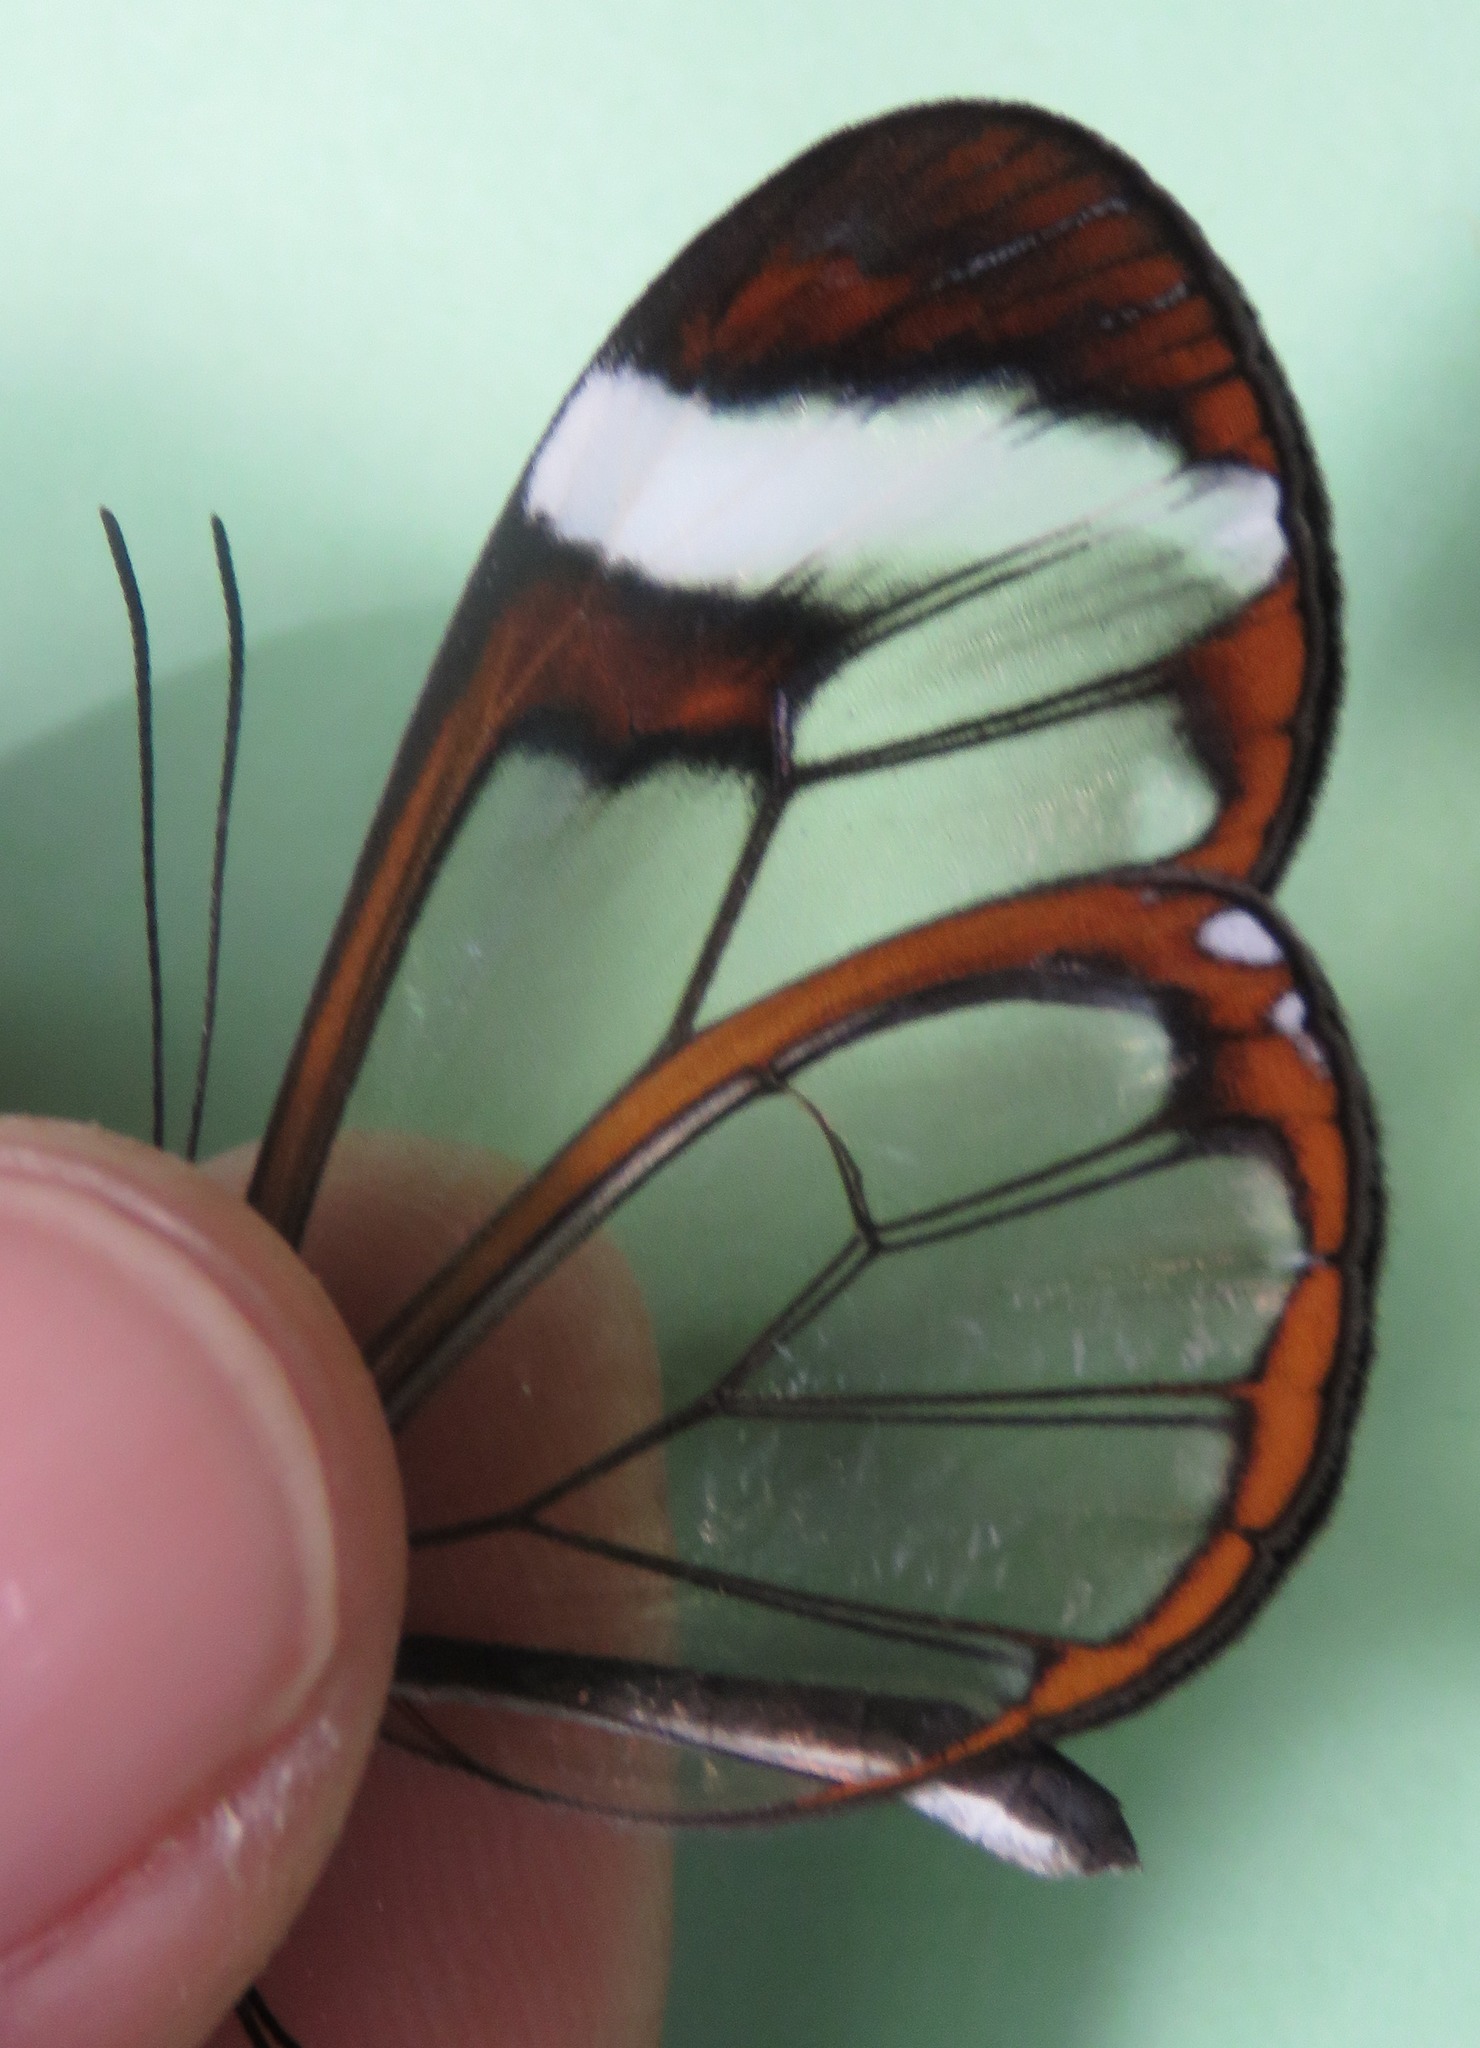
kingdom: Animalia
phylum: Arthropoda
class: Insecta
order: Lepidoptera
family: Nymphalidae
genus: Greta
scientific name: Greta morgane
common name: Thick-tipped greta
